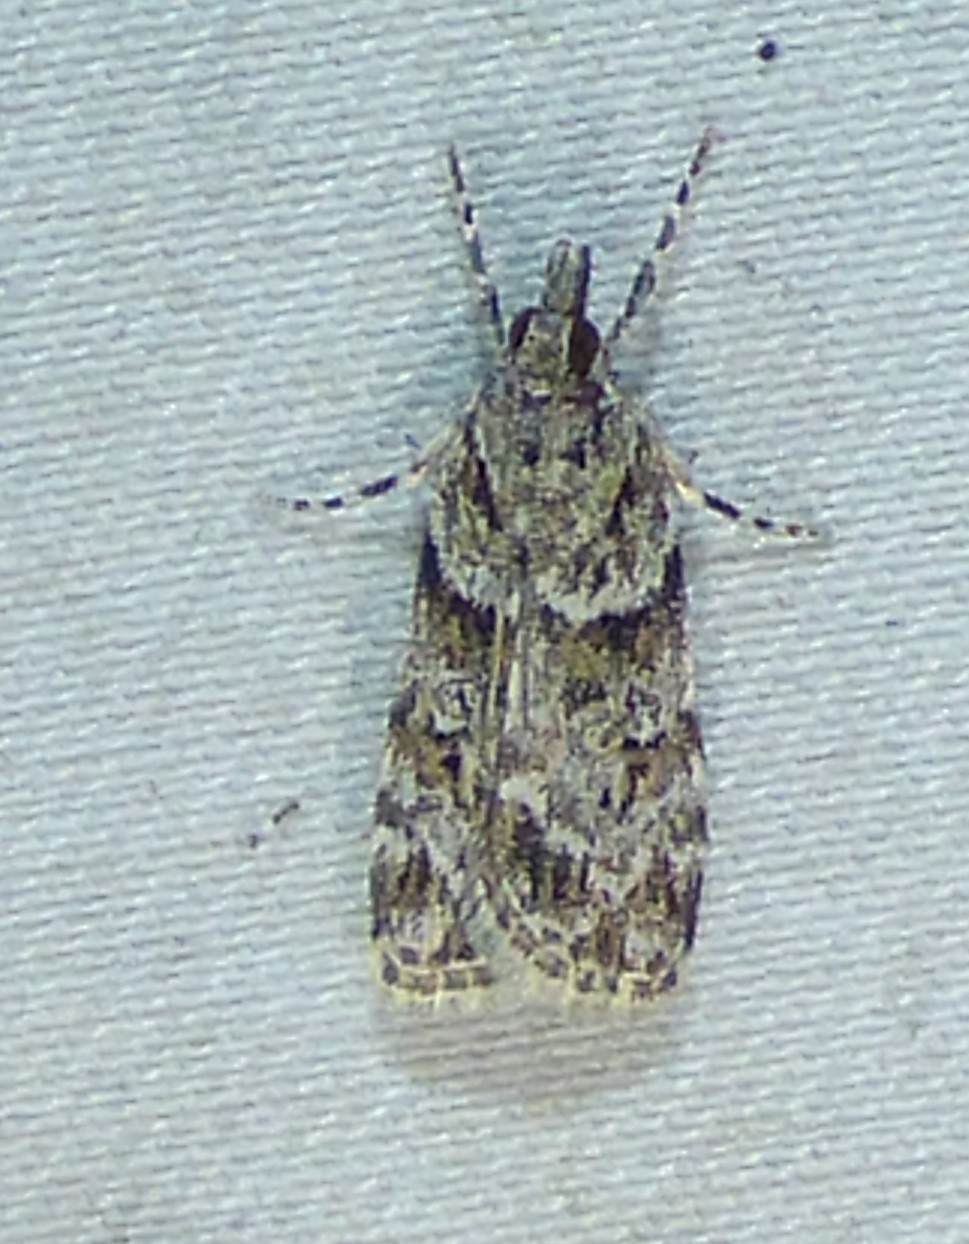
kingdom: Animalia
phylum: Arthropoda
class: Insecta
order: Lepidoptera
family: Crambidae
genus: Scoparia
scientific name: Scoparia biplagialis
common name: Double-striped scoparia moth
